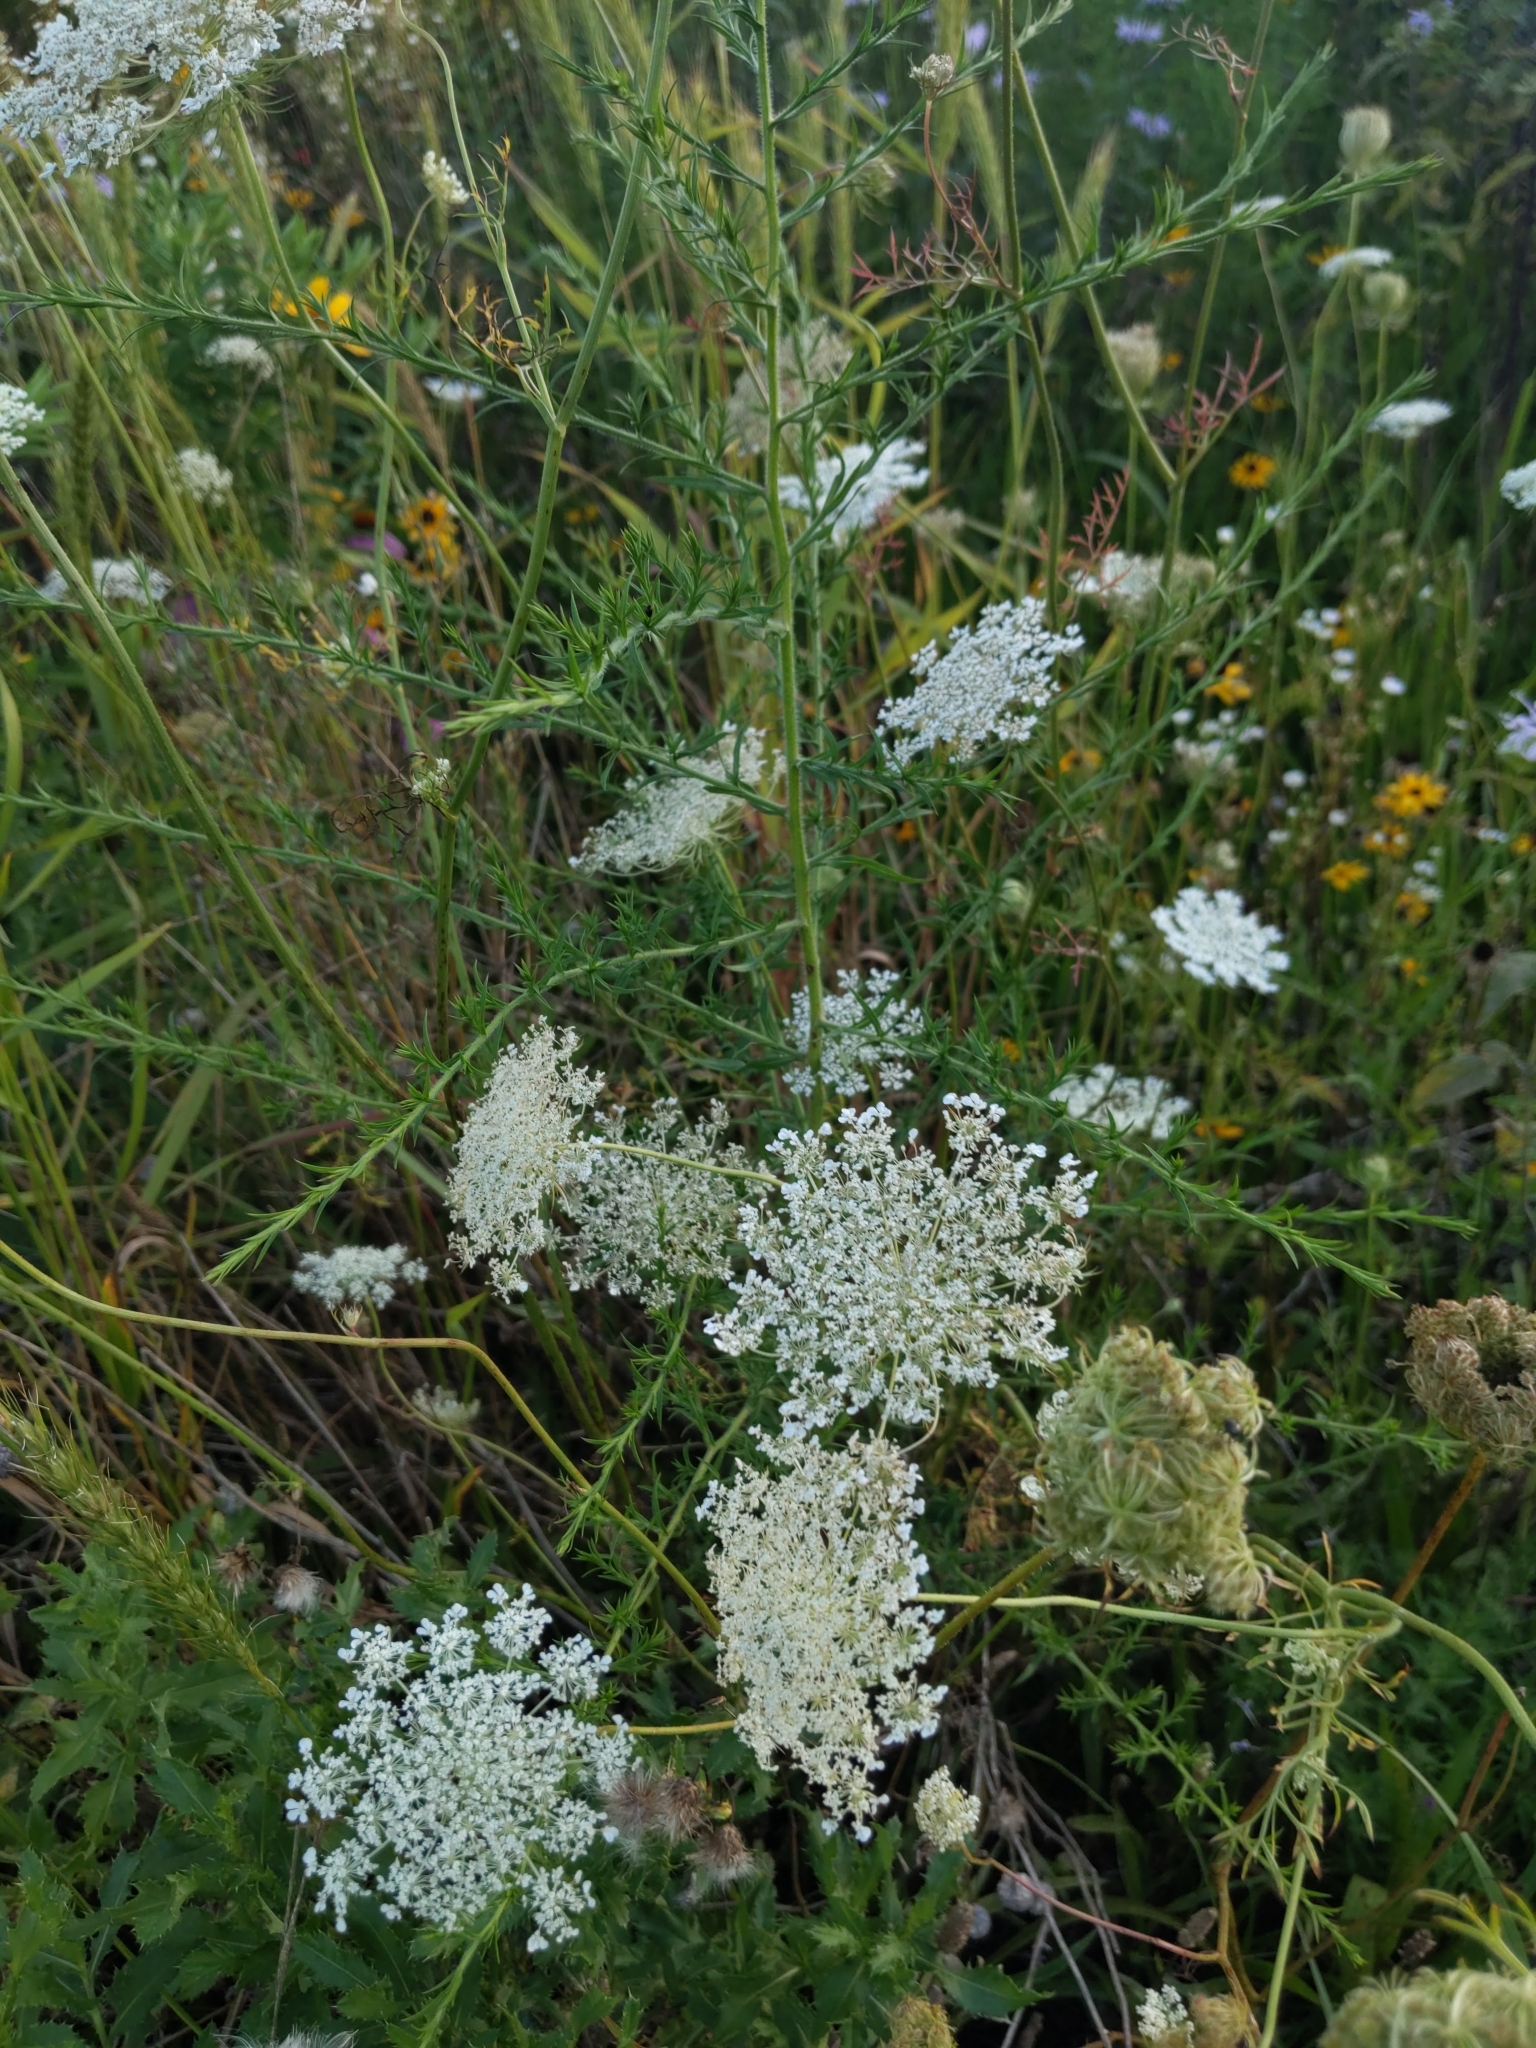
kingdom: Plantae
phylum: Tracheophyta
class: Magnoliopsida
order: Apiales
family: Apiaceae
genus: Daucus
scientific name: Daucus carota
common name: Wild carrot
